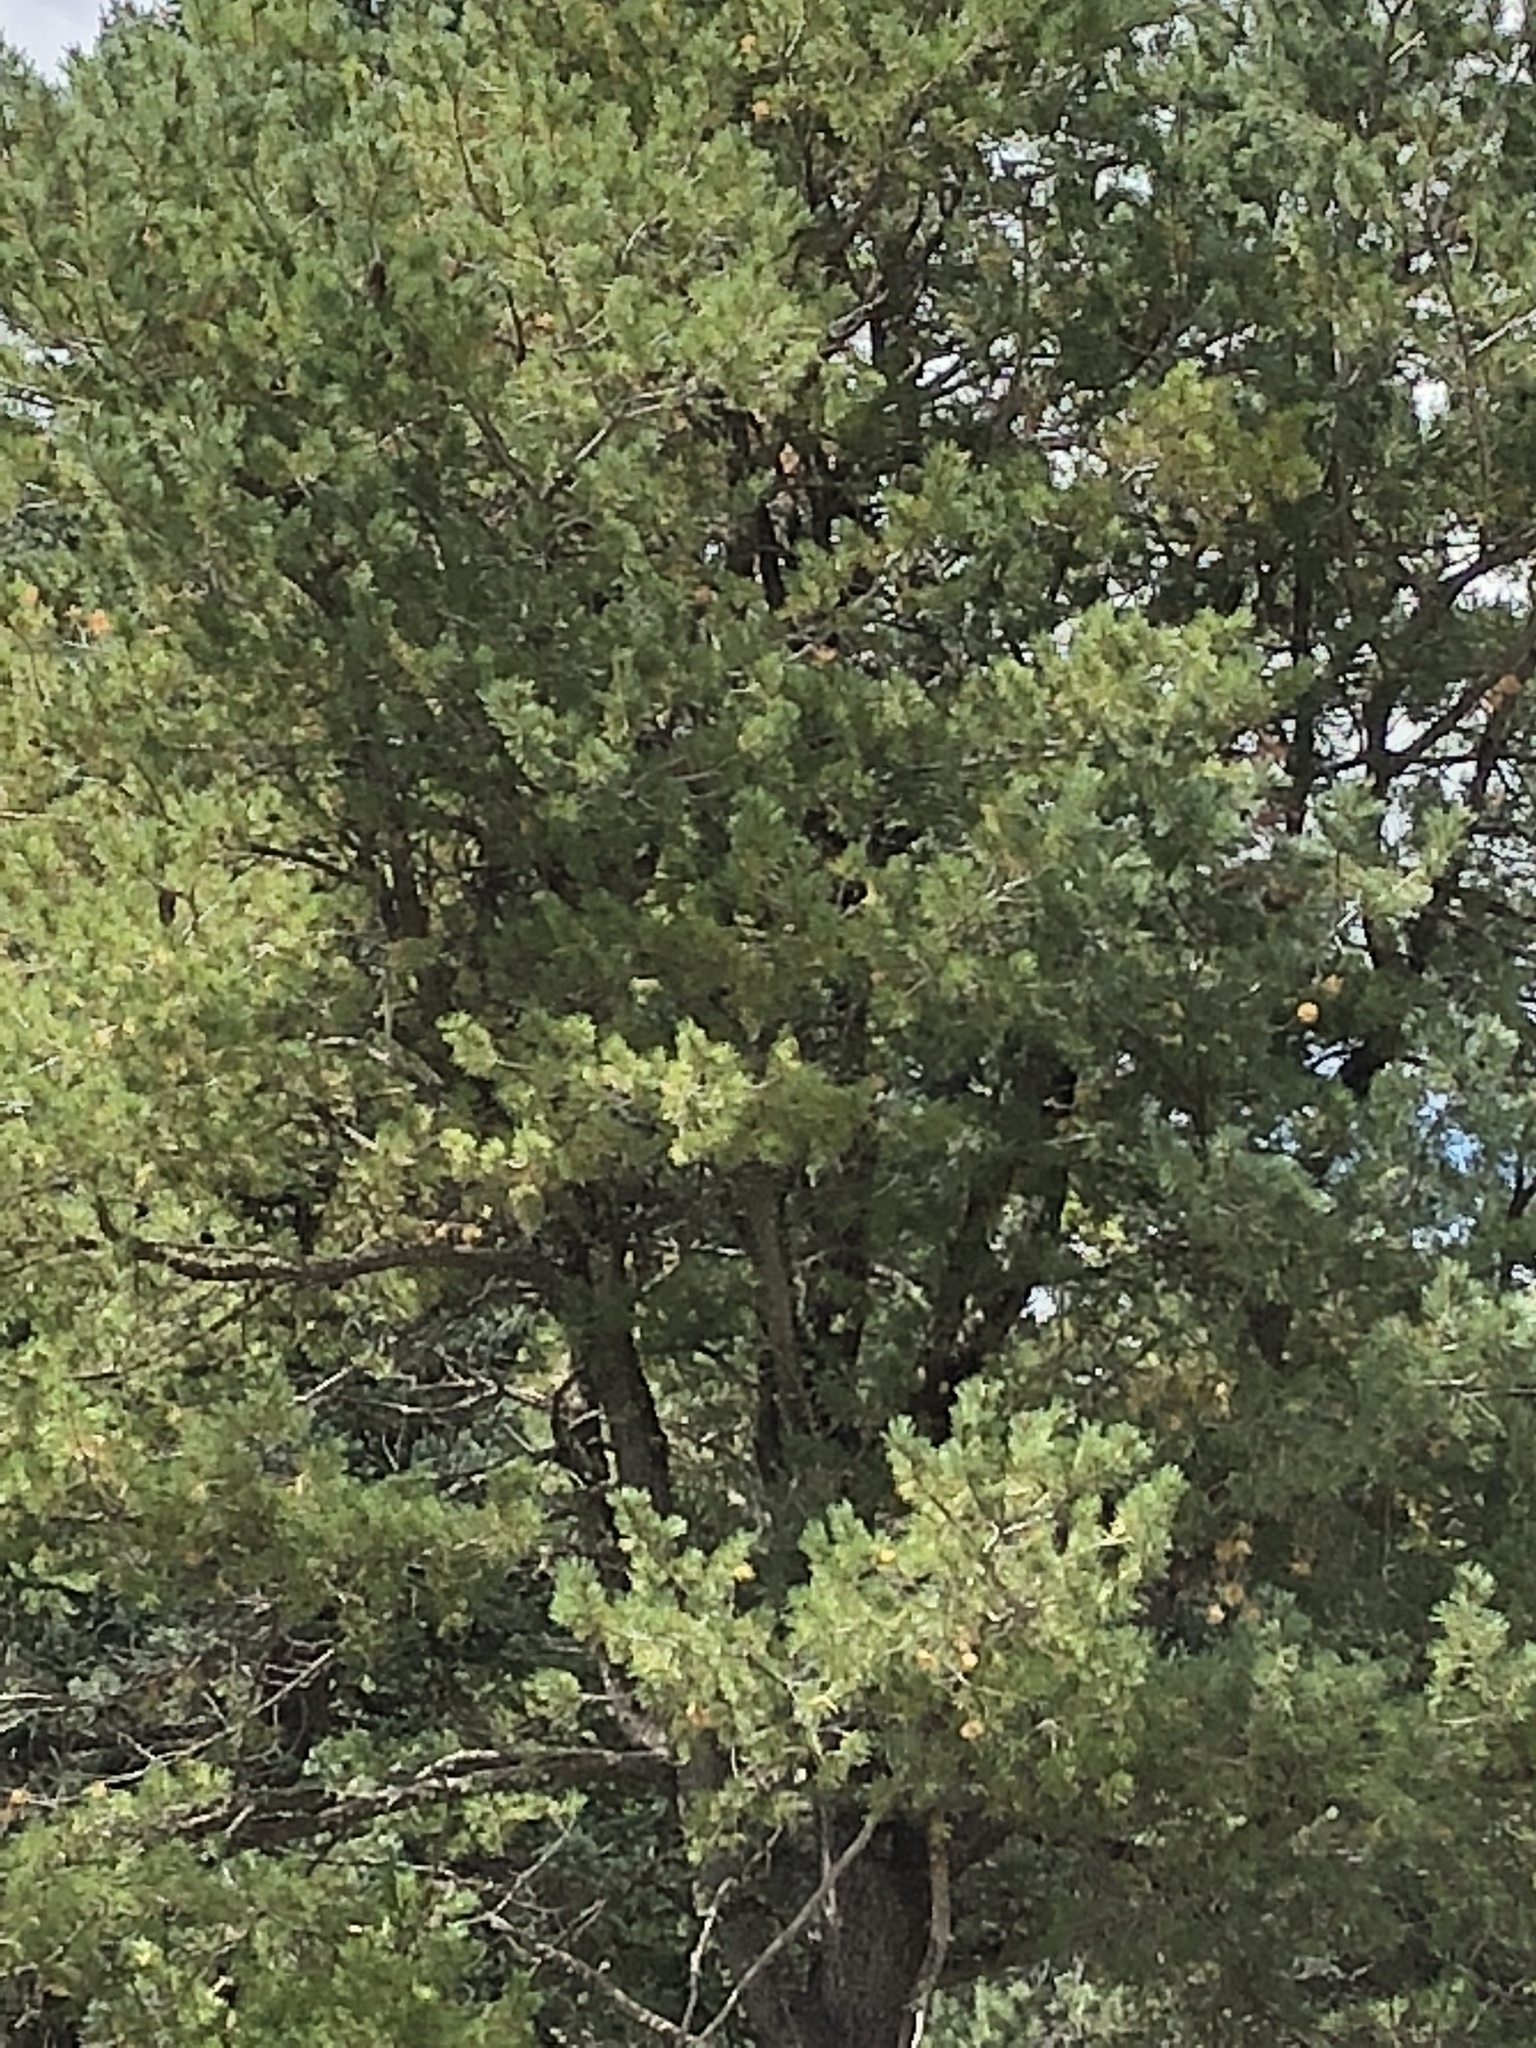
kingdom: Plantae
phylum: Tracheophyta
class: Pinopsida
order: Pinales
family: Pinaceae
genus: Pinus
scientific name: Pinus strobiformis
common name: Southwestern white pine
